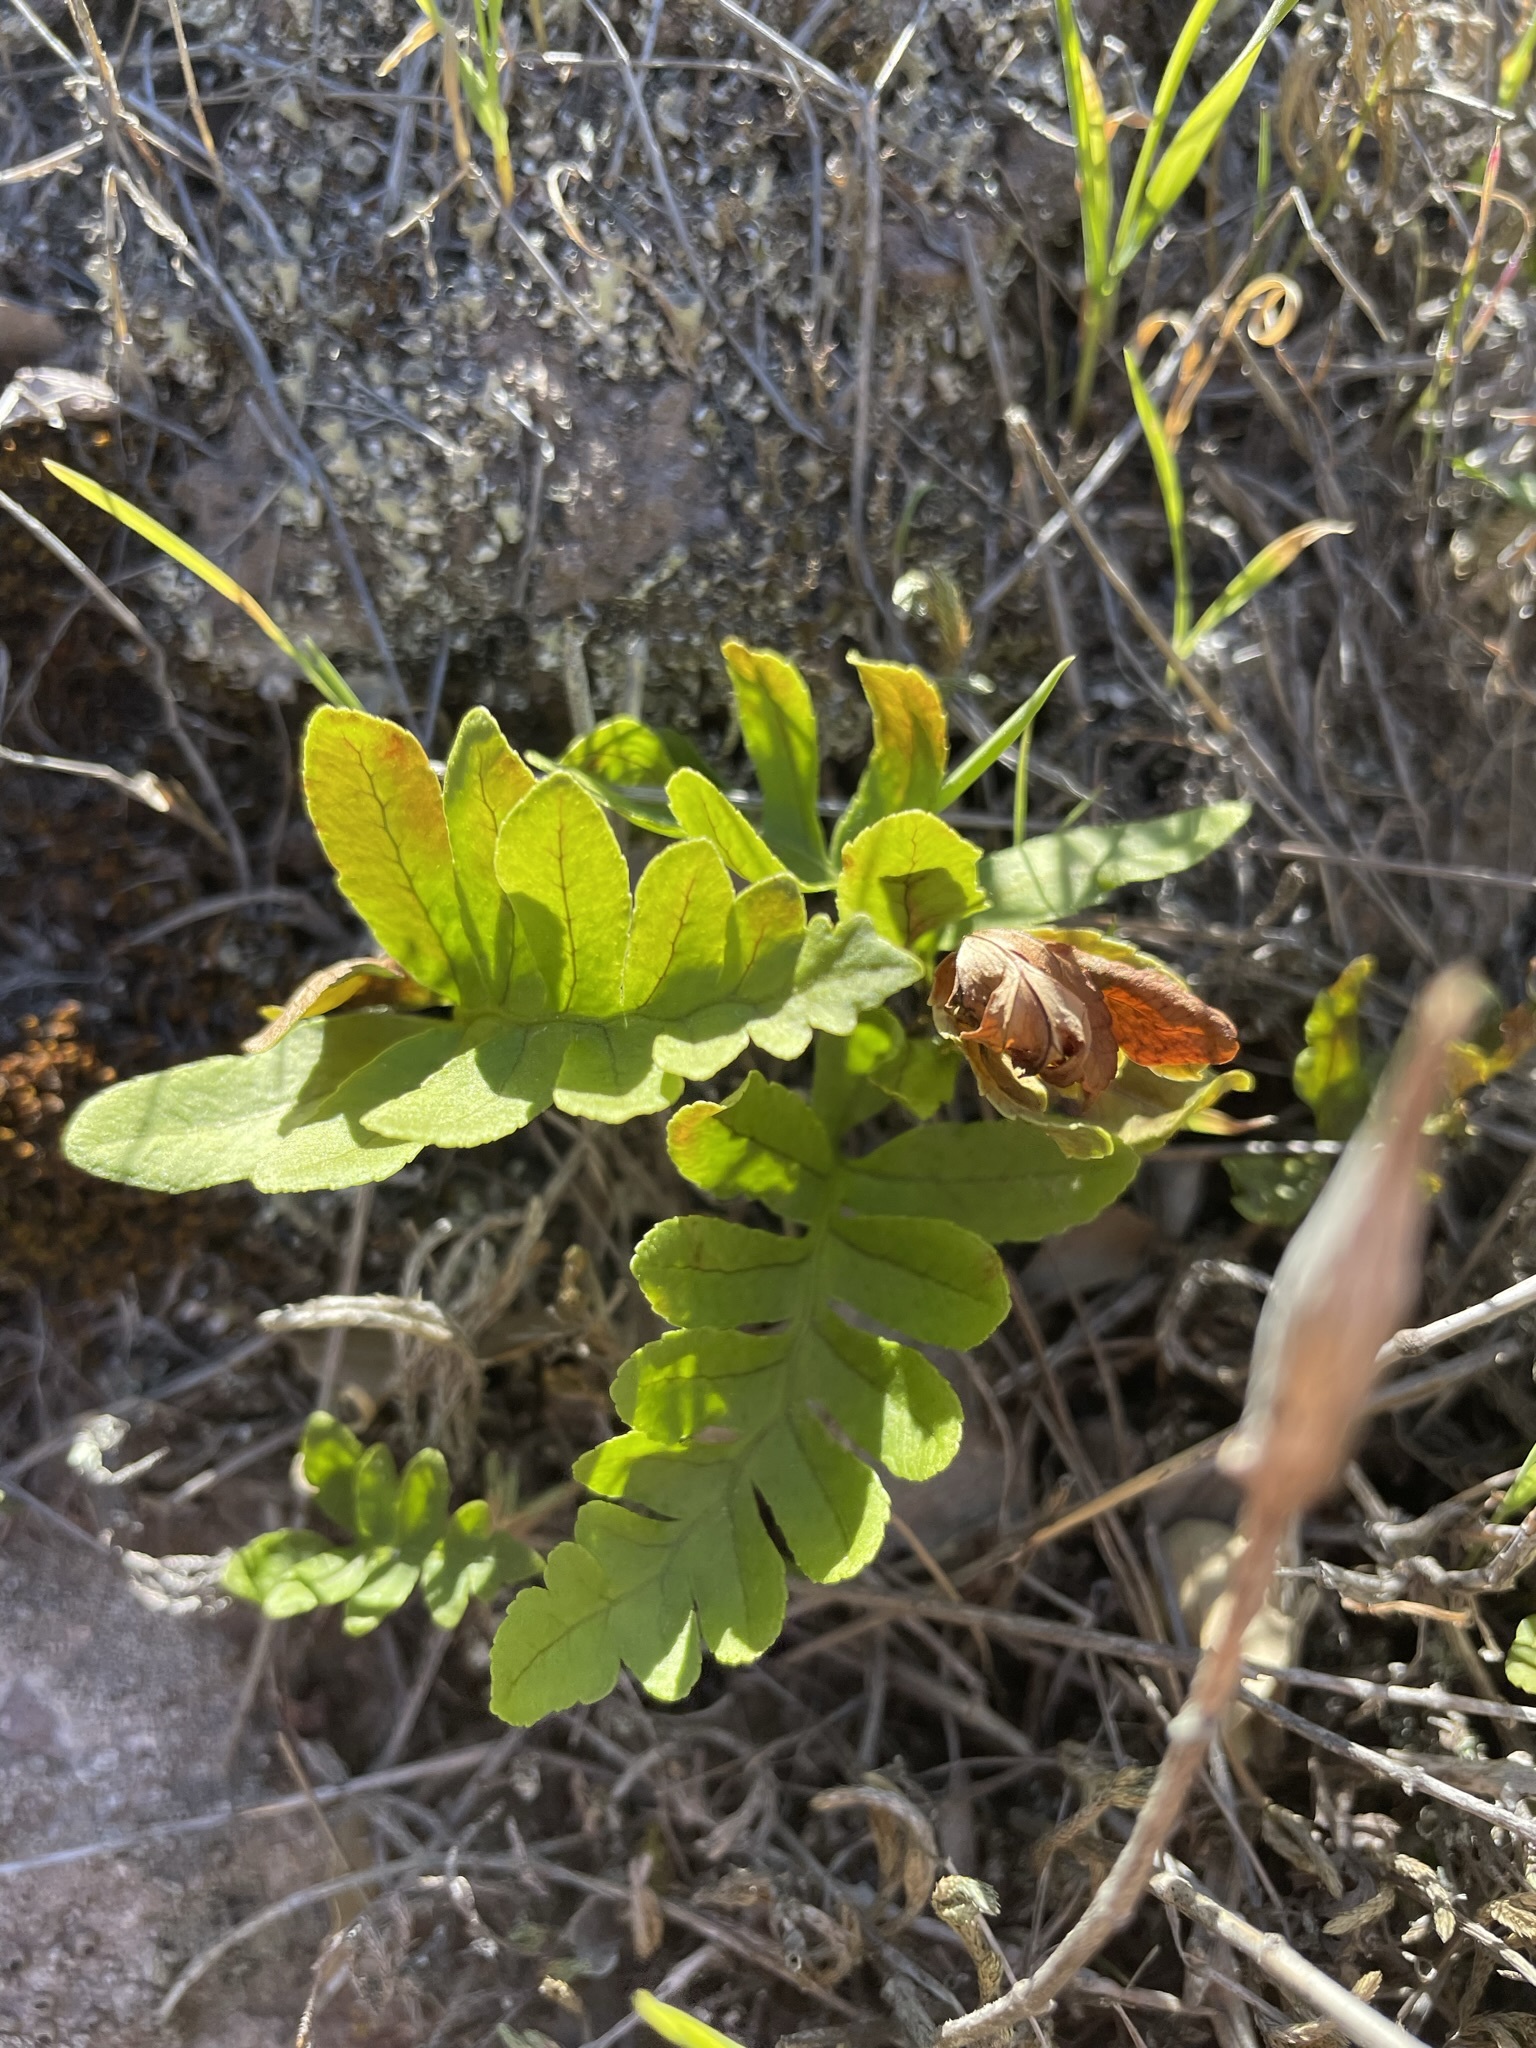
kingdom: Plantae
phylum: Tracheophyta
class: Polypodiopsida
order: Polypodiales
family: Polypodiaceae
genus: Polypodium
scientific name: Polypodium californicum
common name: California polypody
